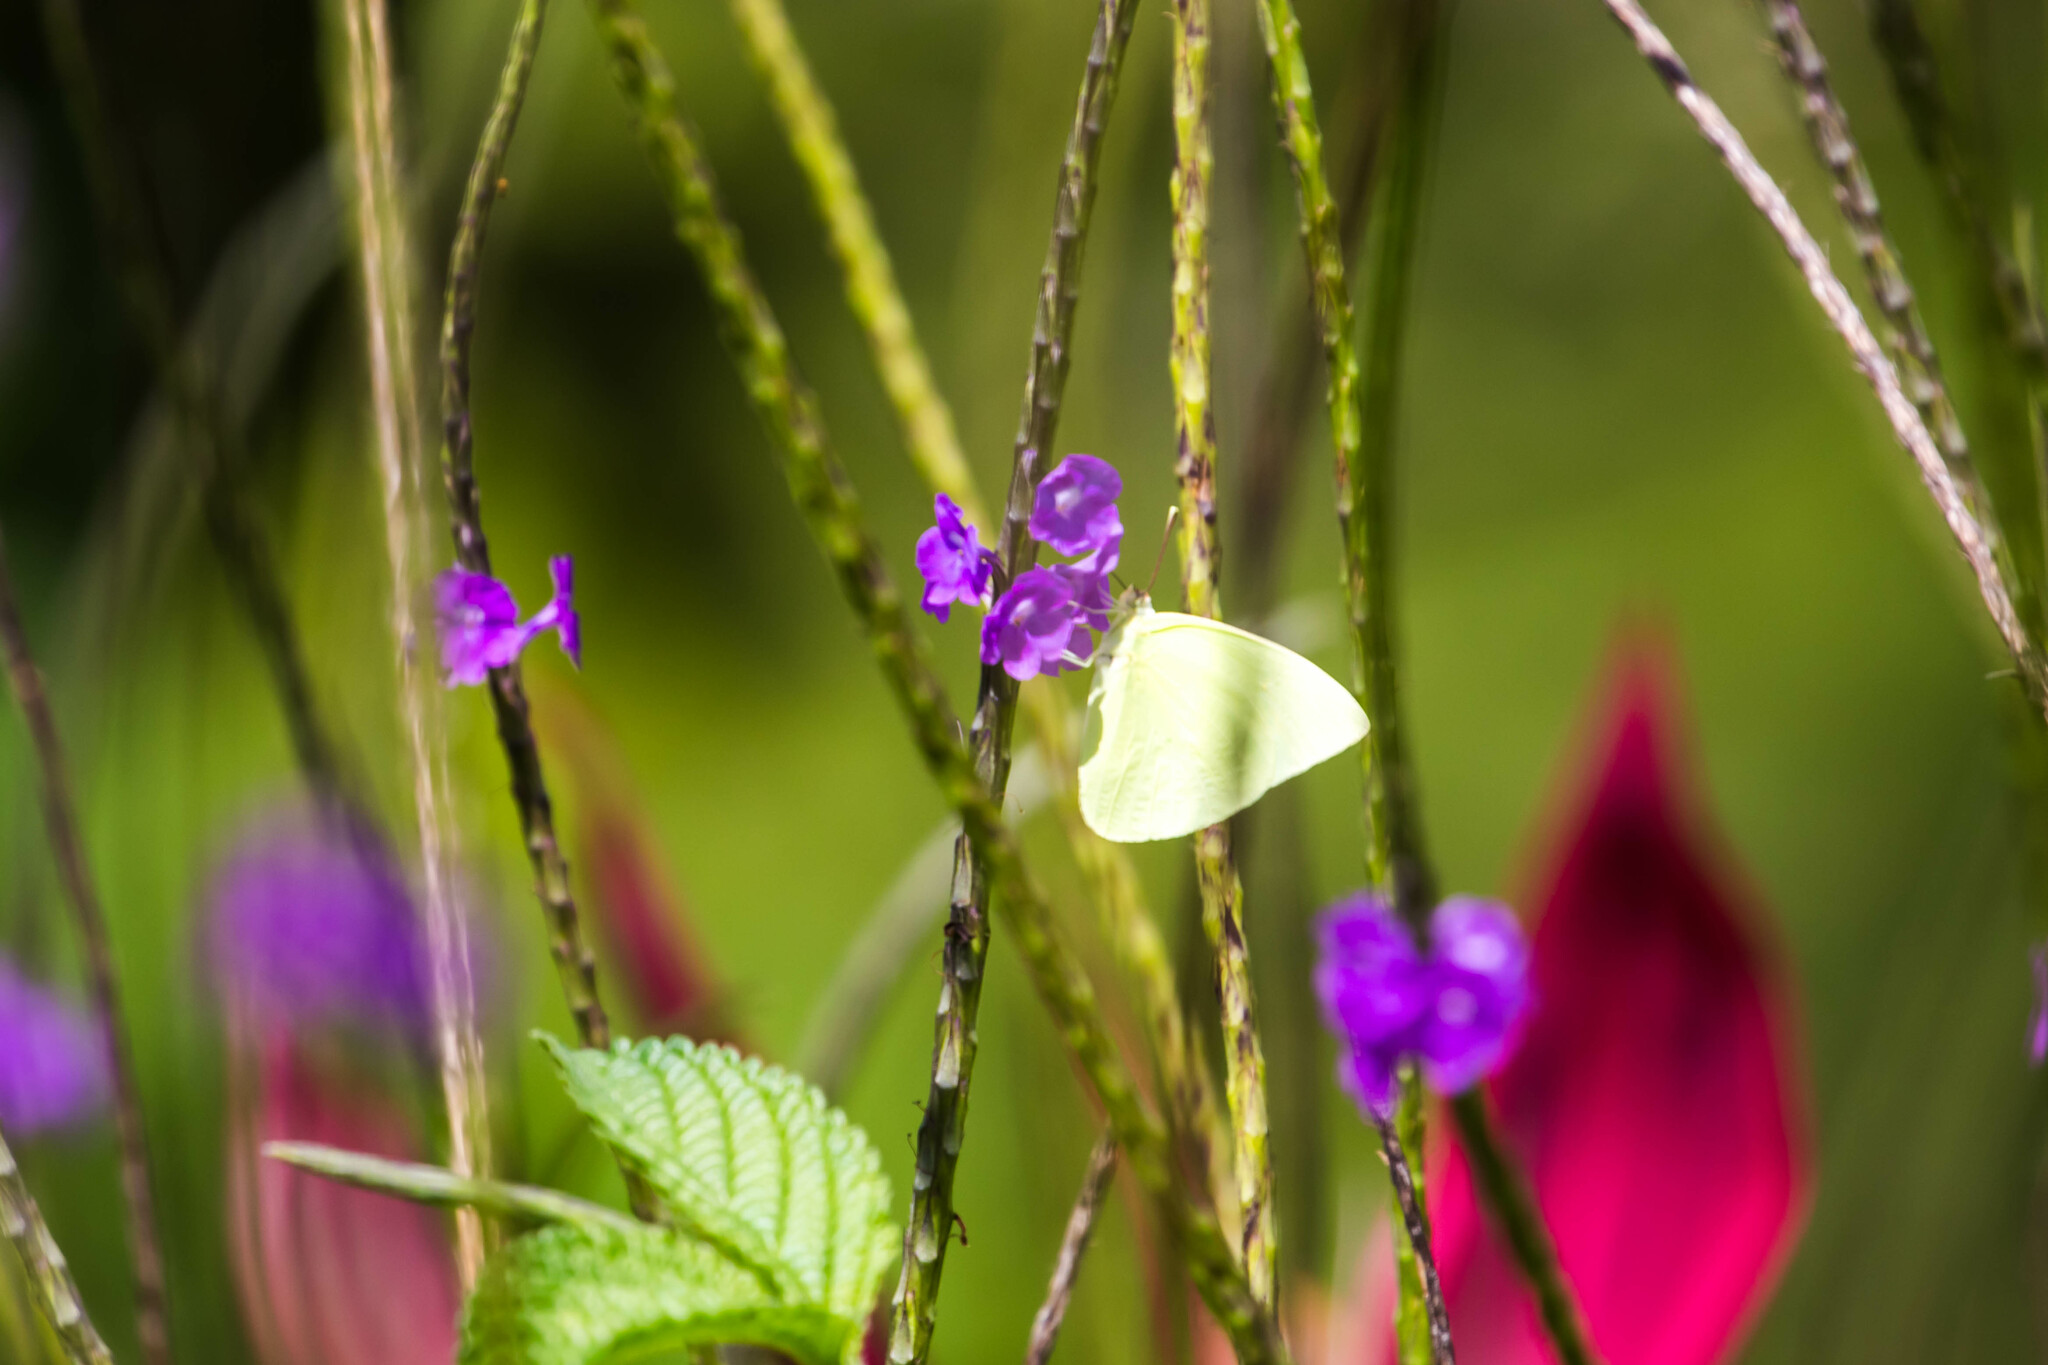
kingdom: Animalia
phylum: Arthropoda
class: Insecta
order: Lepidoptera
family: Pieridae
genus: Aphrissa
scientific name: Aphrissa statira
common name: Statira sulphur
